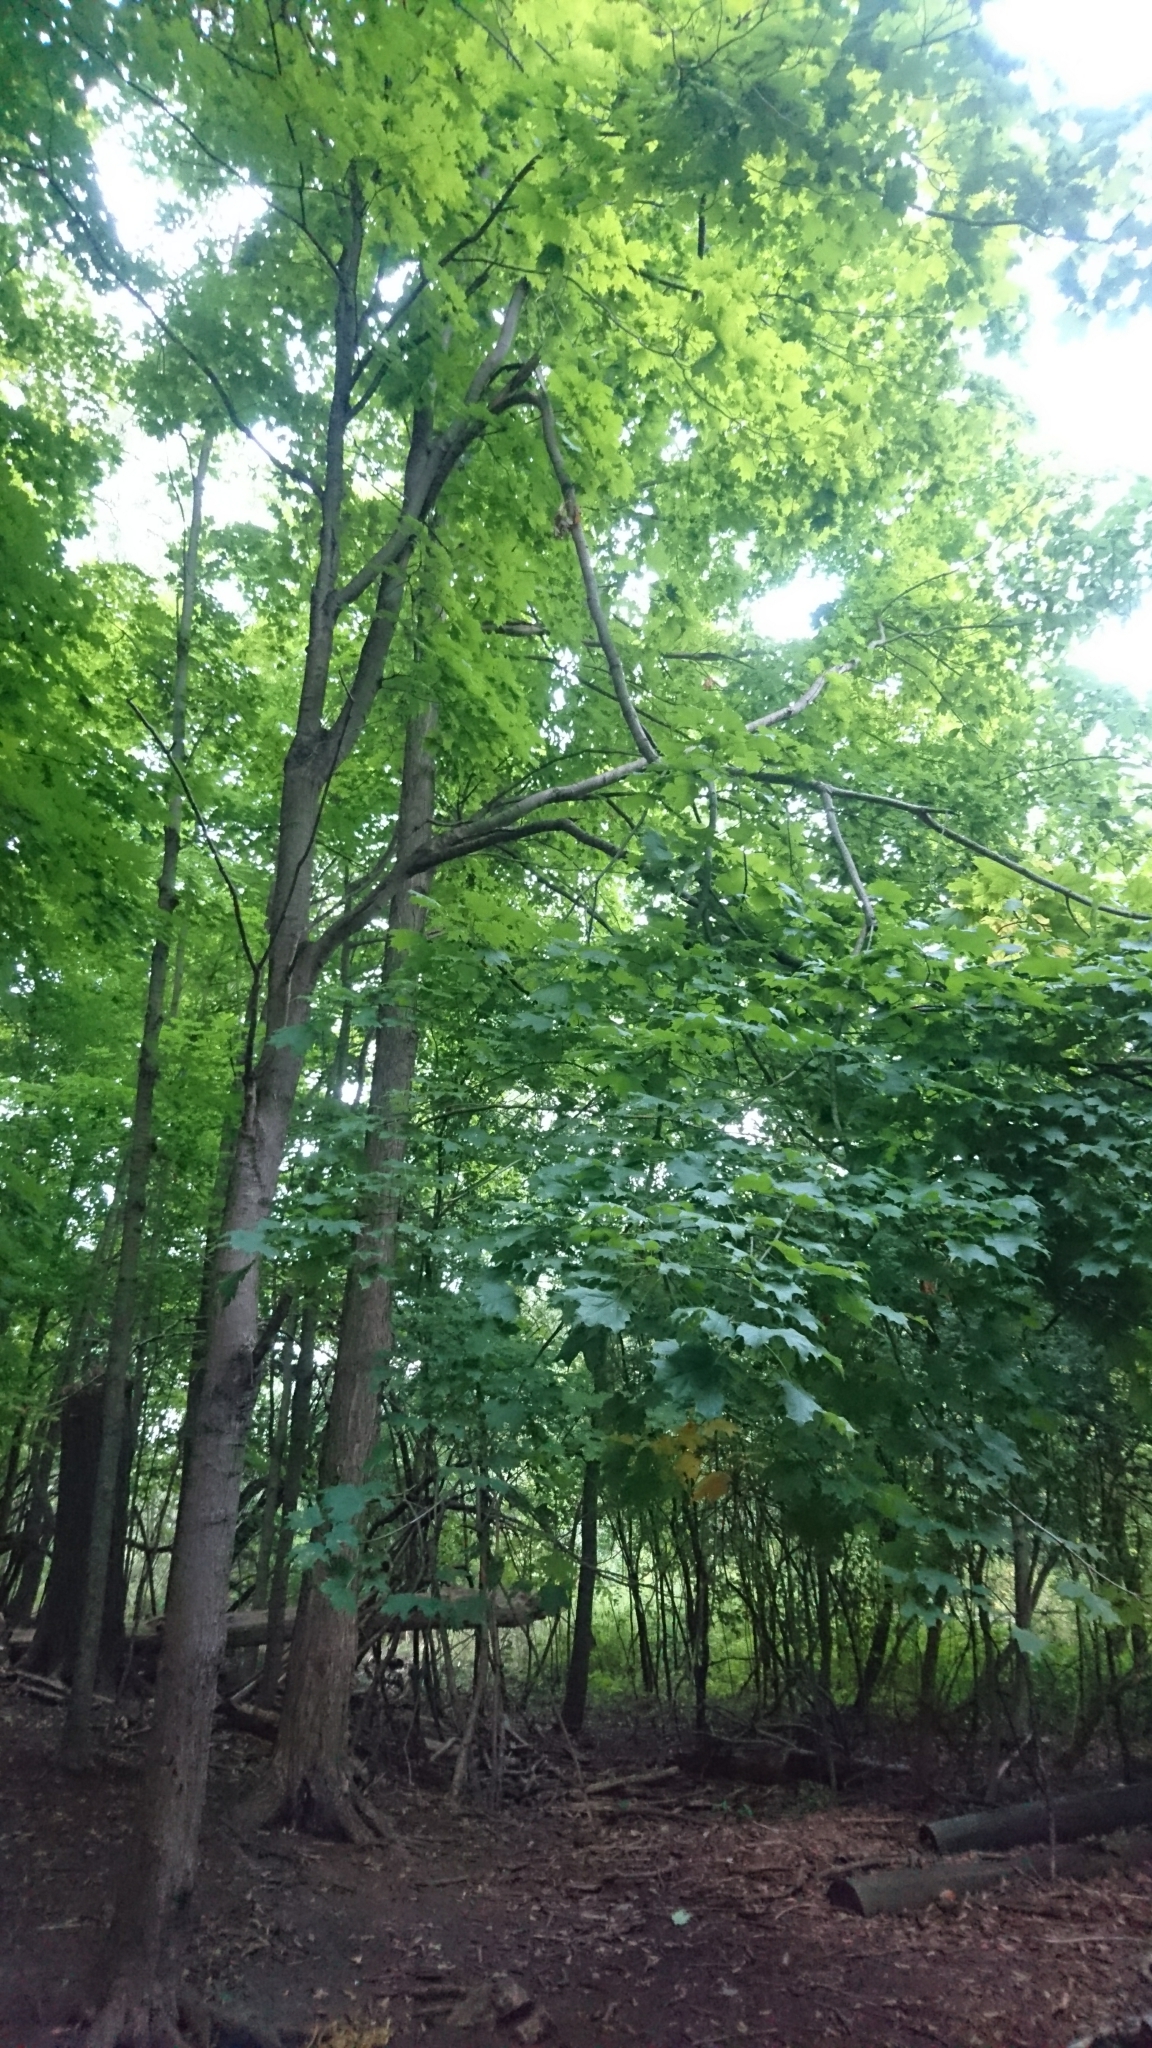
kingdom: Plantae
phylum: Tracheophyta
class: Magnoliopsida
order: Sapindales
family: Sapindaceae
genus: Acer
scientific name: Acer saccharum
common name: Sugar maple
